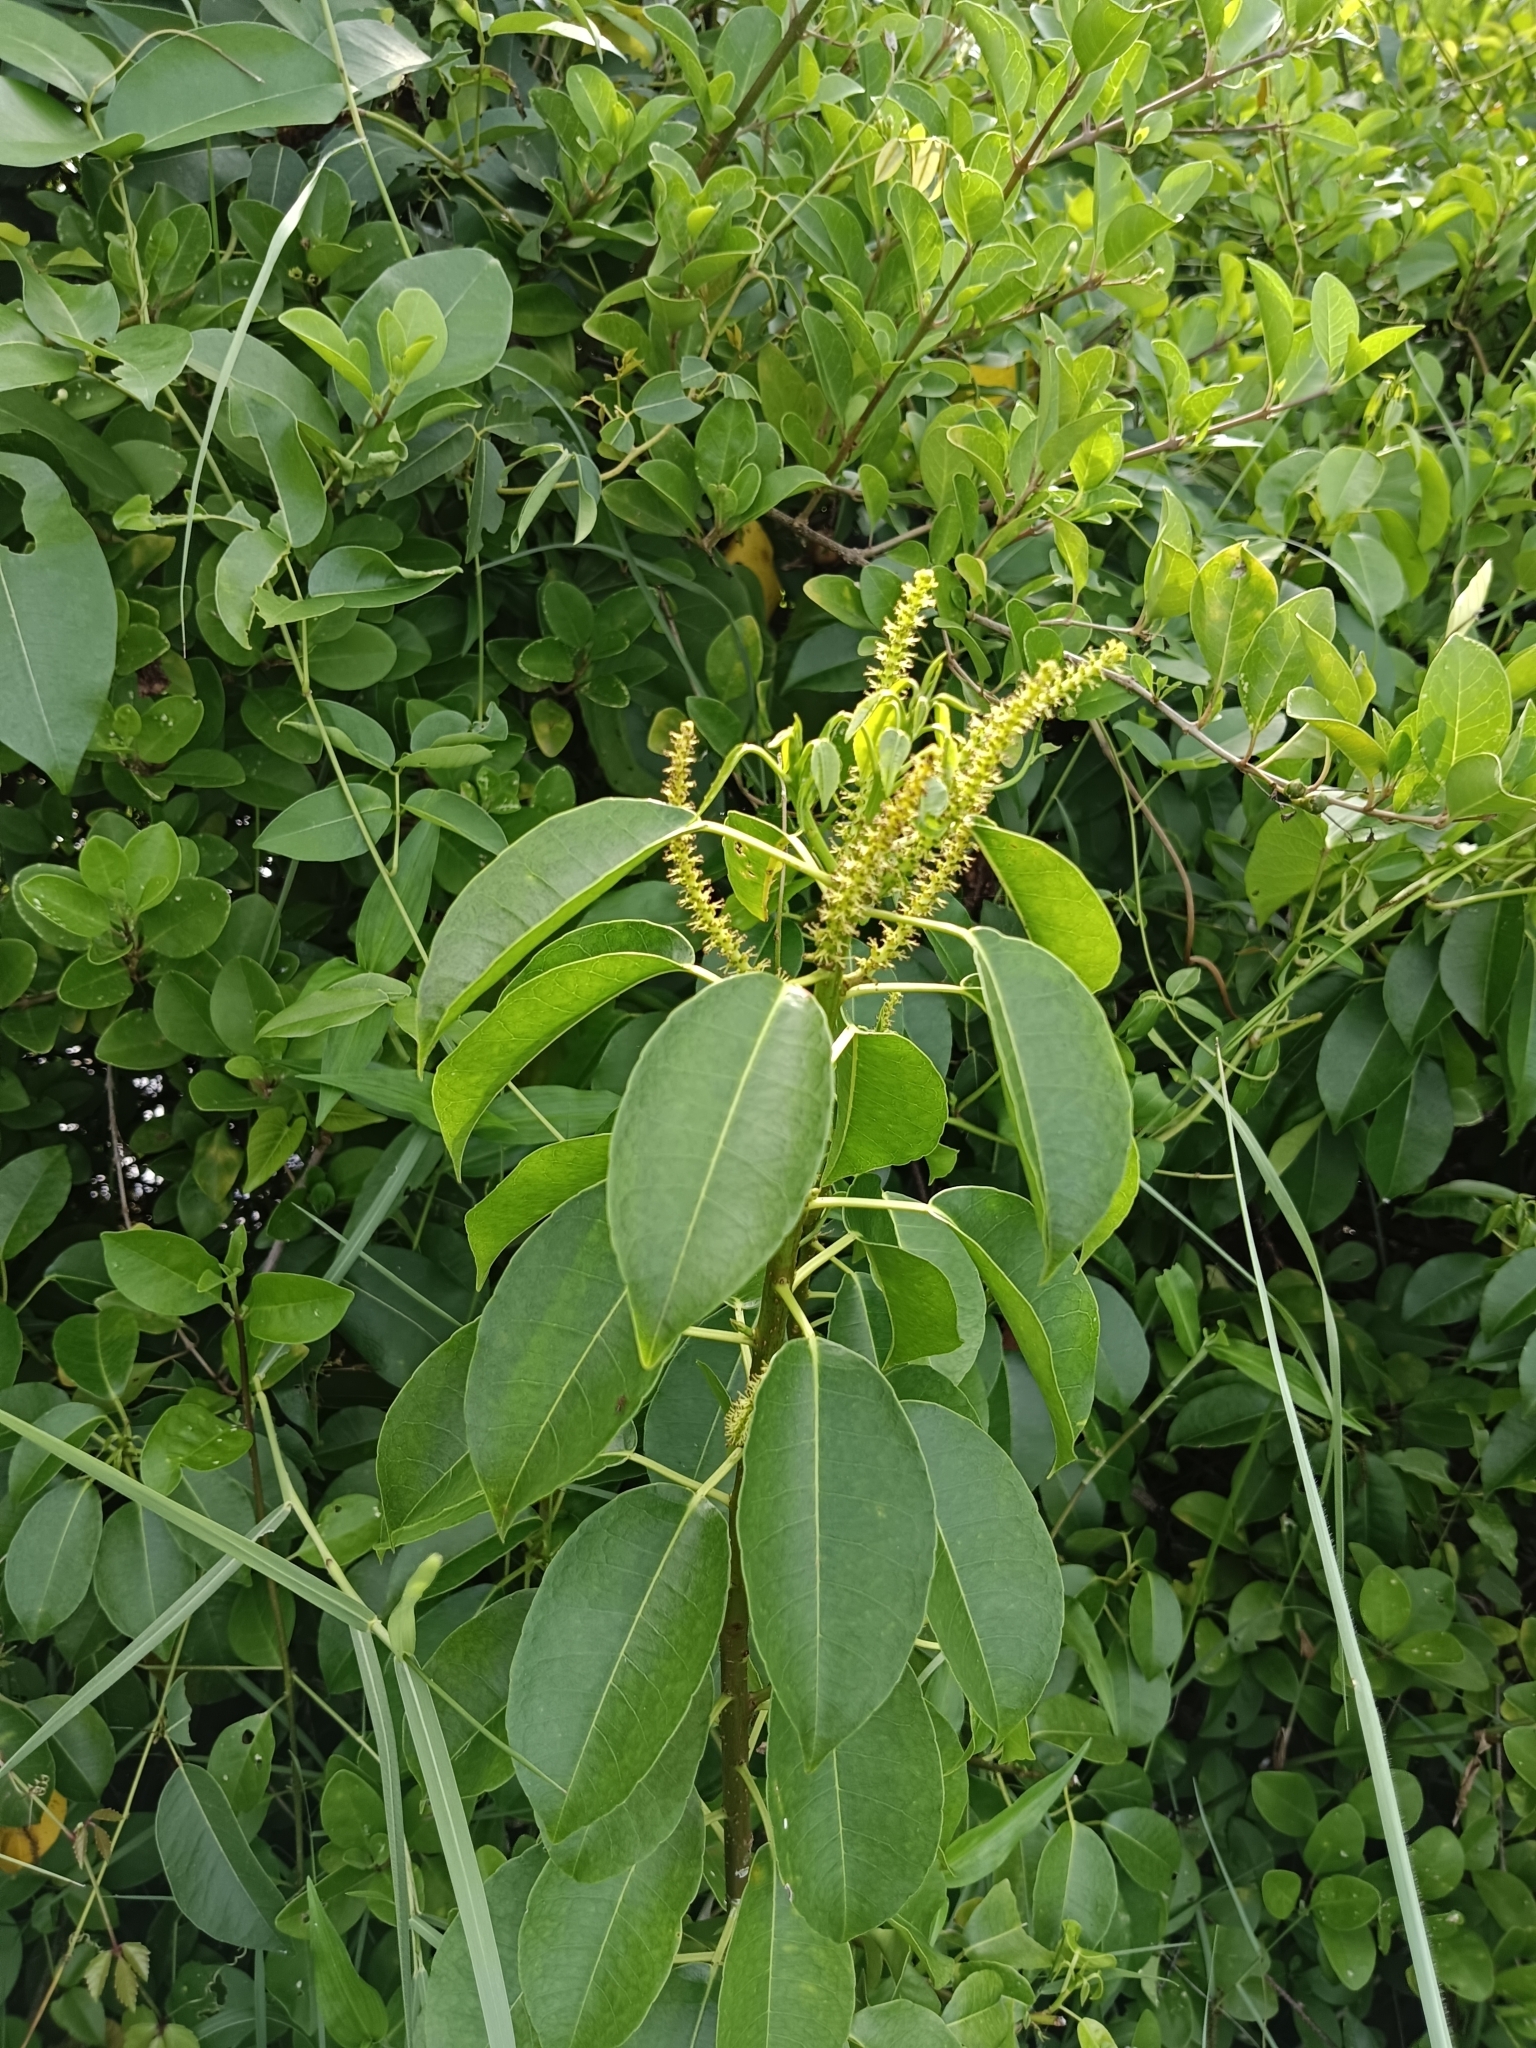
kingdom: Plantae
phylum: Tracheophyta
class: Magnoliopsida
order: Malpighiales
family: Euphorbiaceae
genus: Excoecaria
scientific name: Excoecaria agallocha
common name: River poisontree
